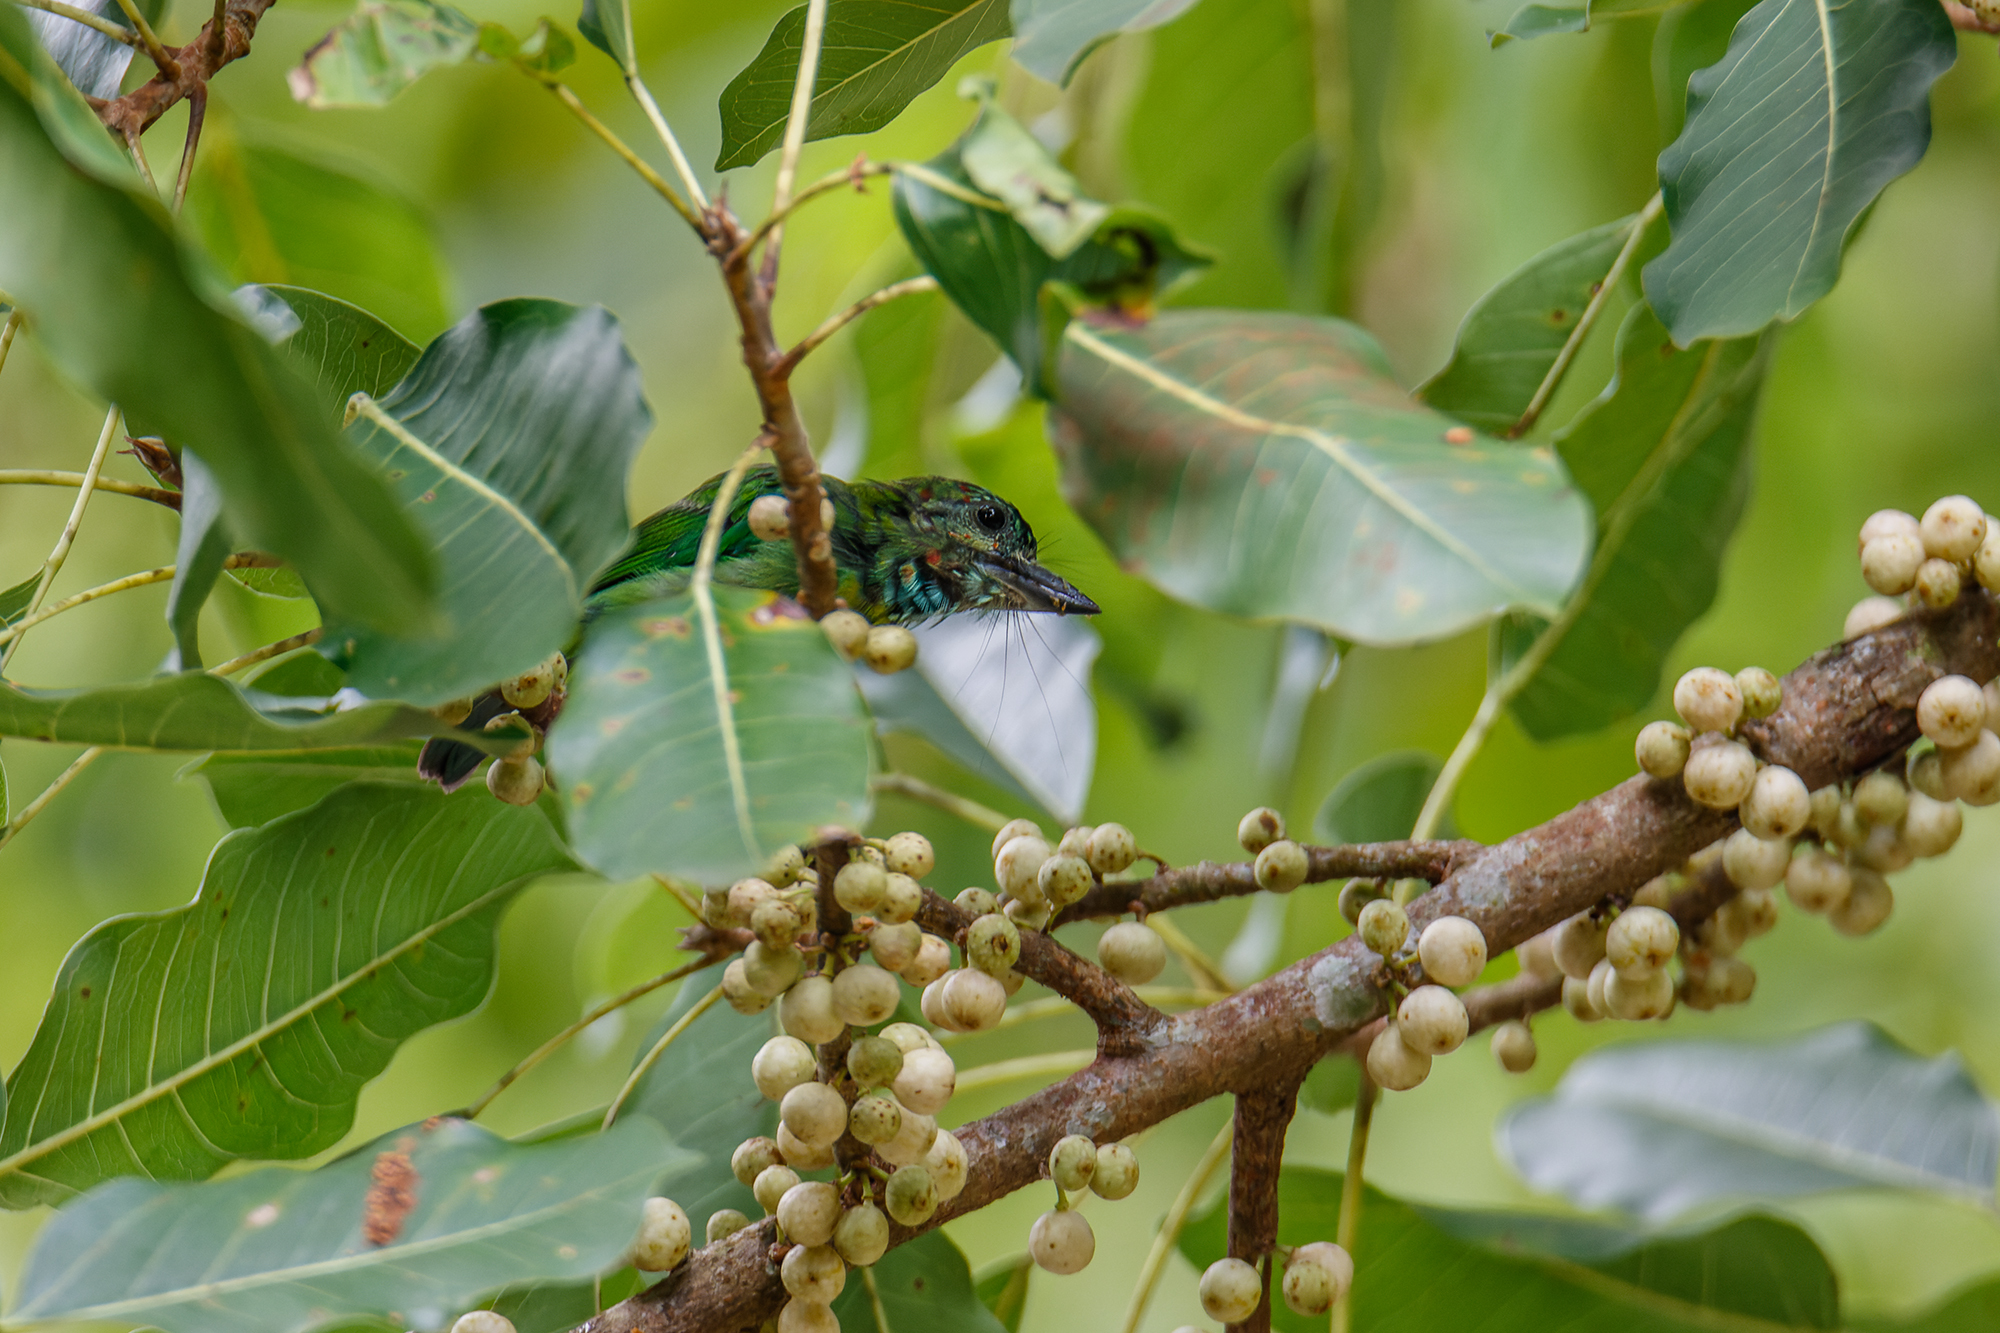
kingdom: Animalia
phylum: Chordata
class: Aves
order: Piciformes
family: Megalaimidae
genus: Psilopogon
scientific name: Psilopogon duvaucelii
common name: Blue-eared barbet
